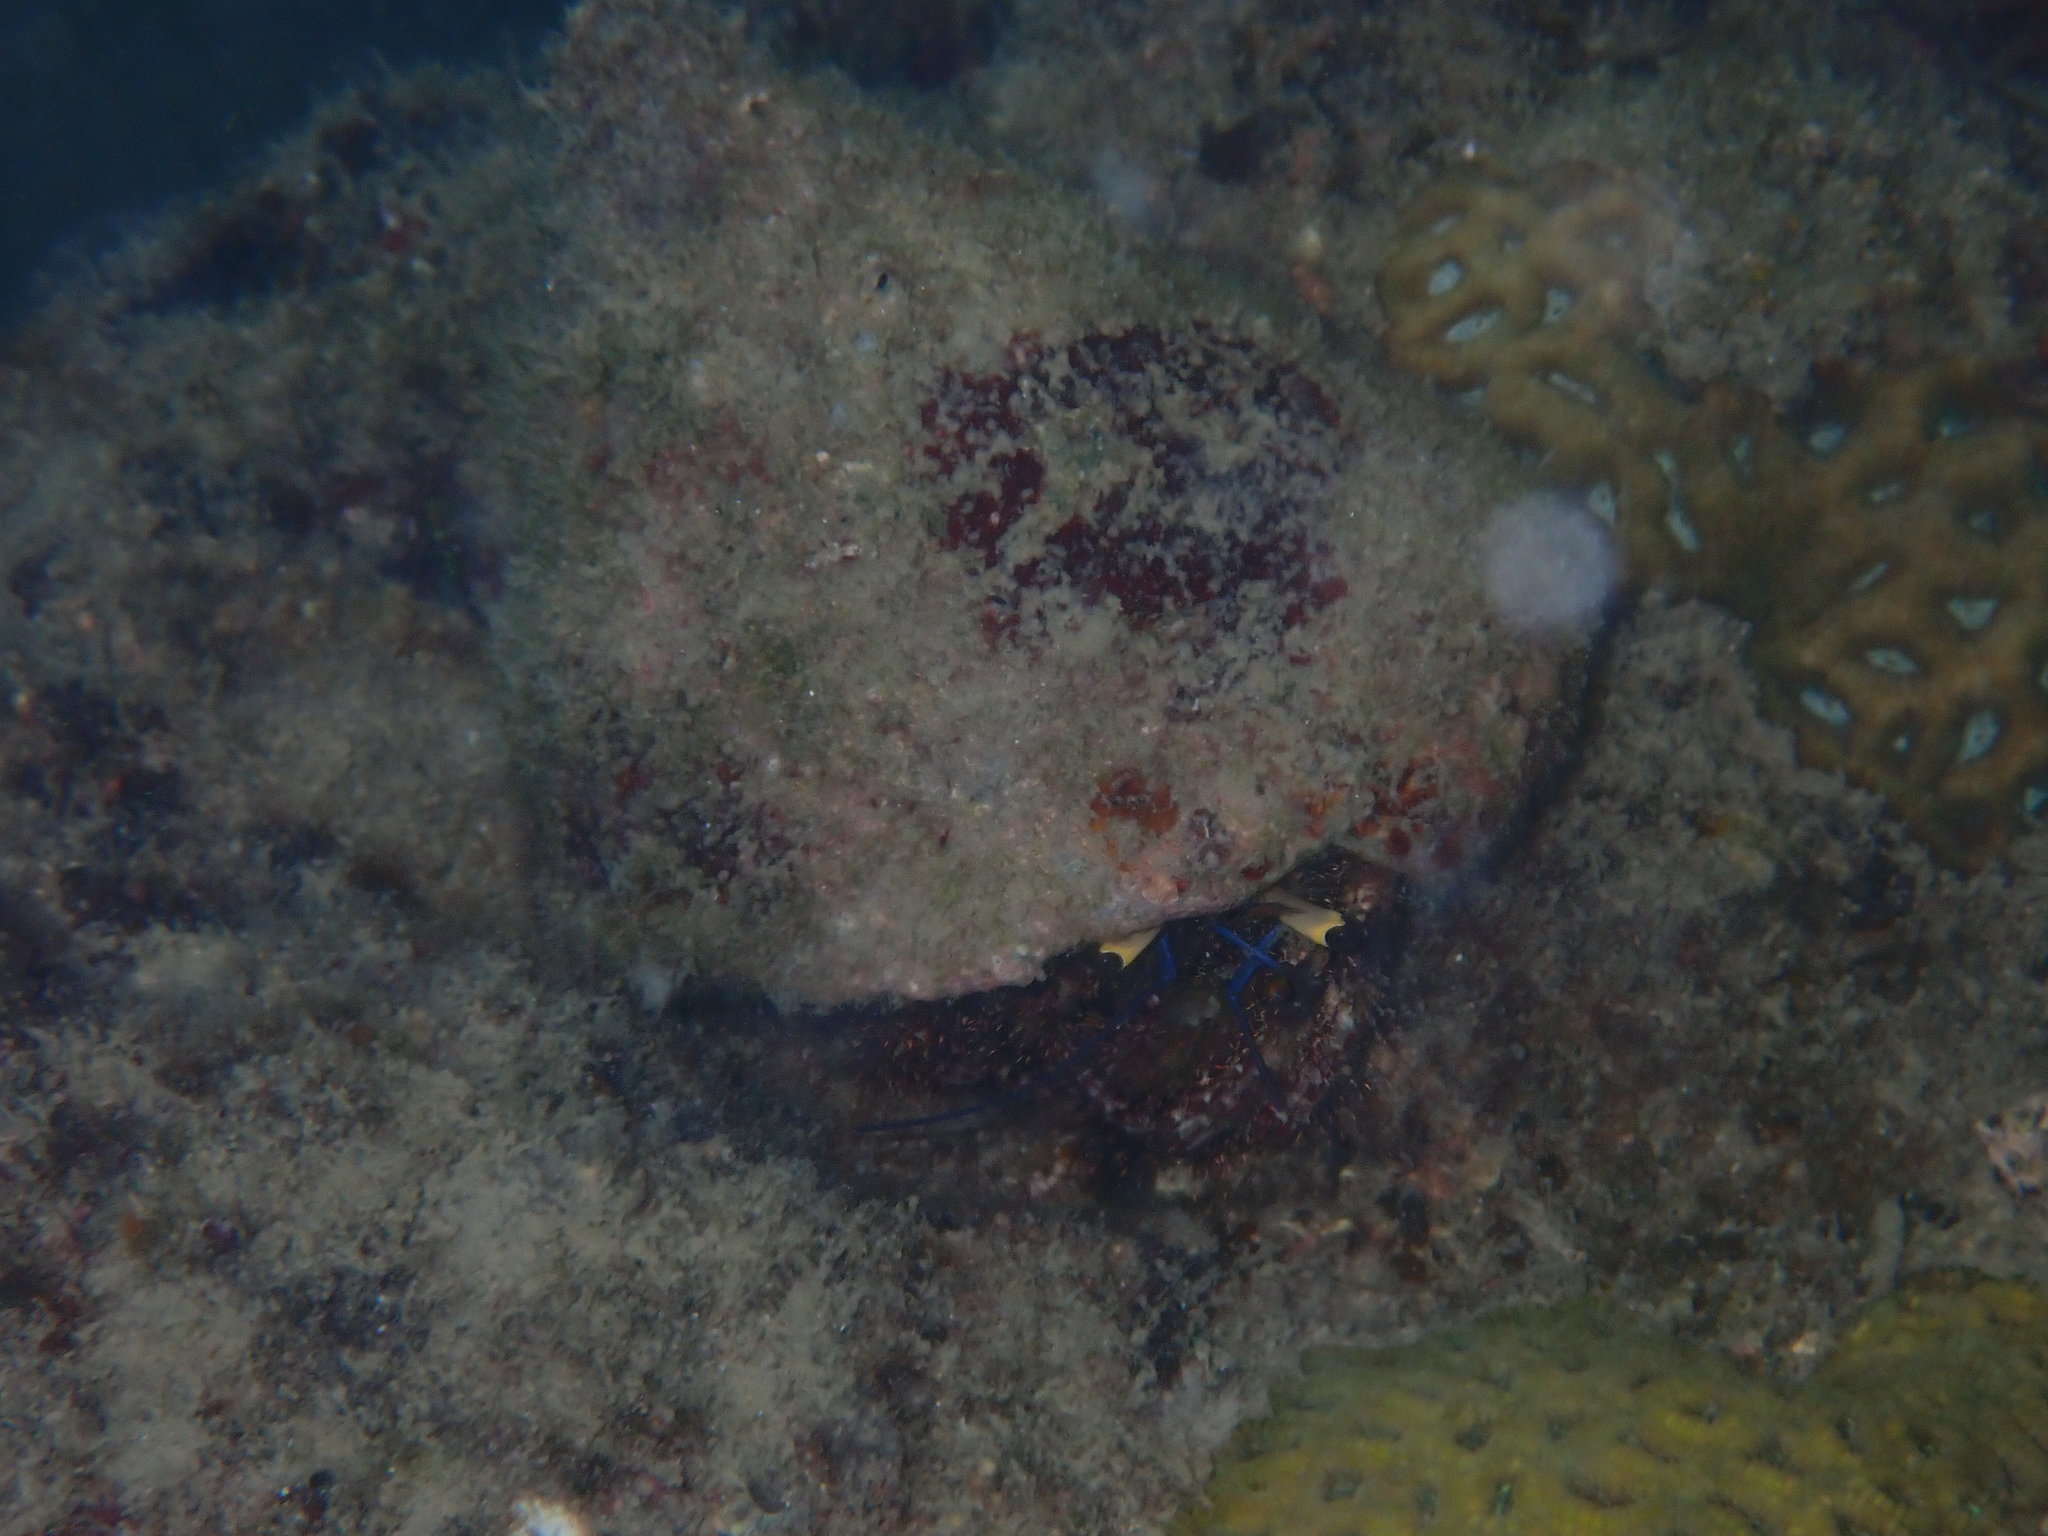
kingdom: Animalia
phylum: Arthropoda
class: Malacostraca
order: Decapoda
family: Diogenidae
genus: Dardanus
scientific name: Dardanus lagopodes
